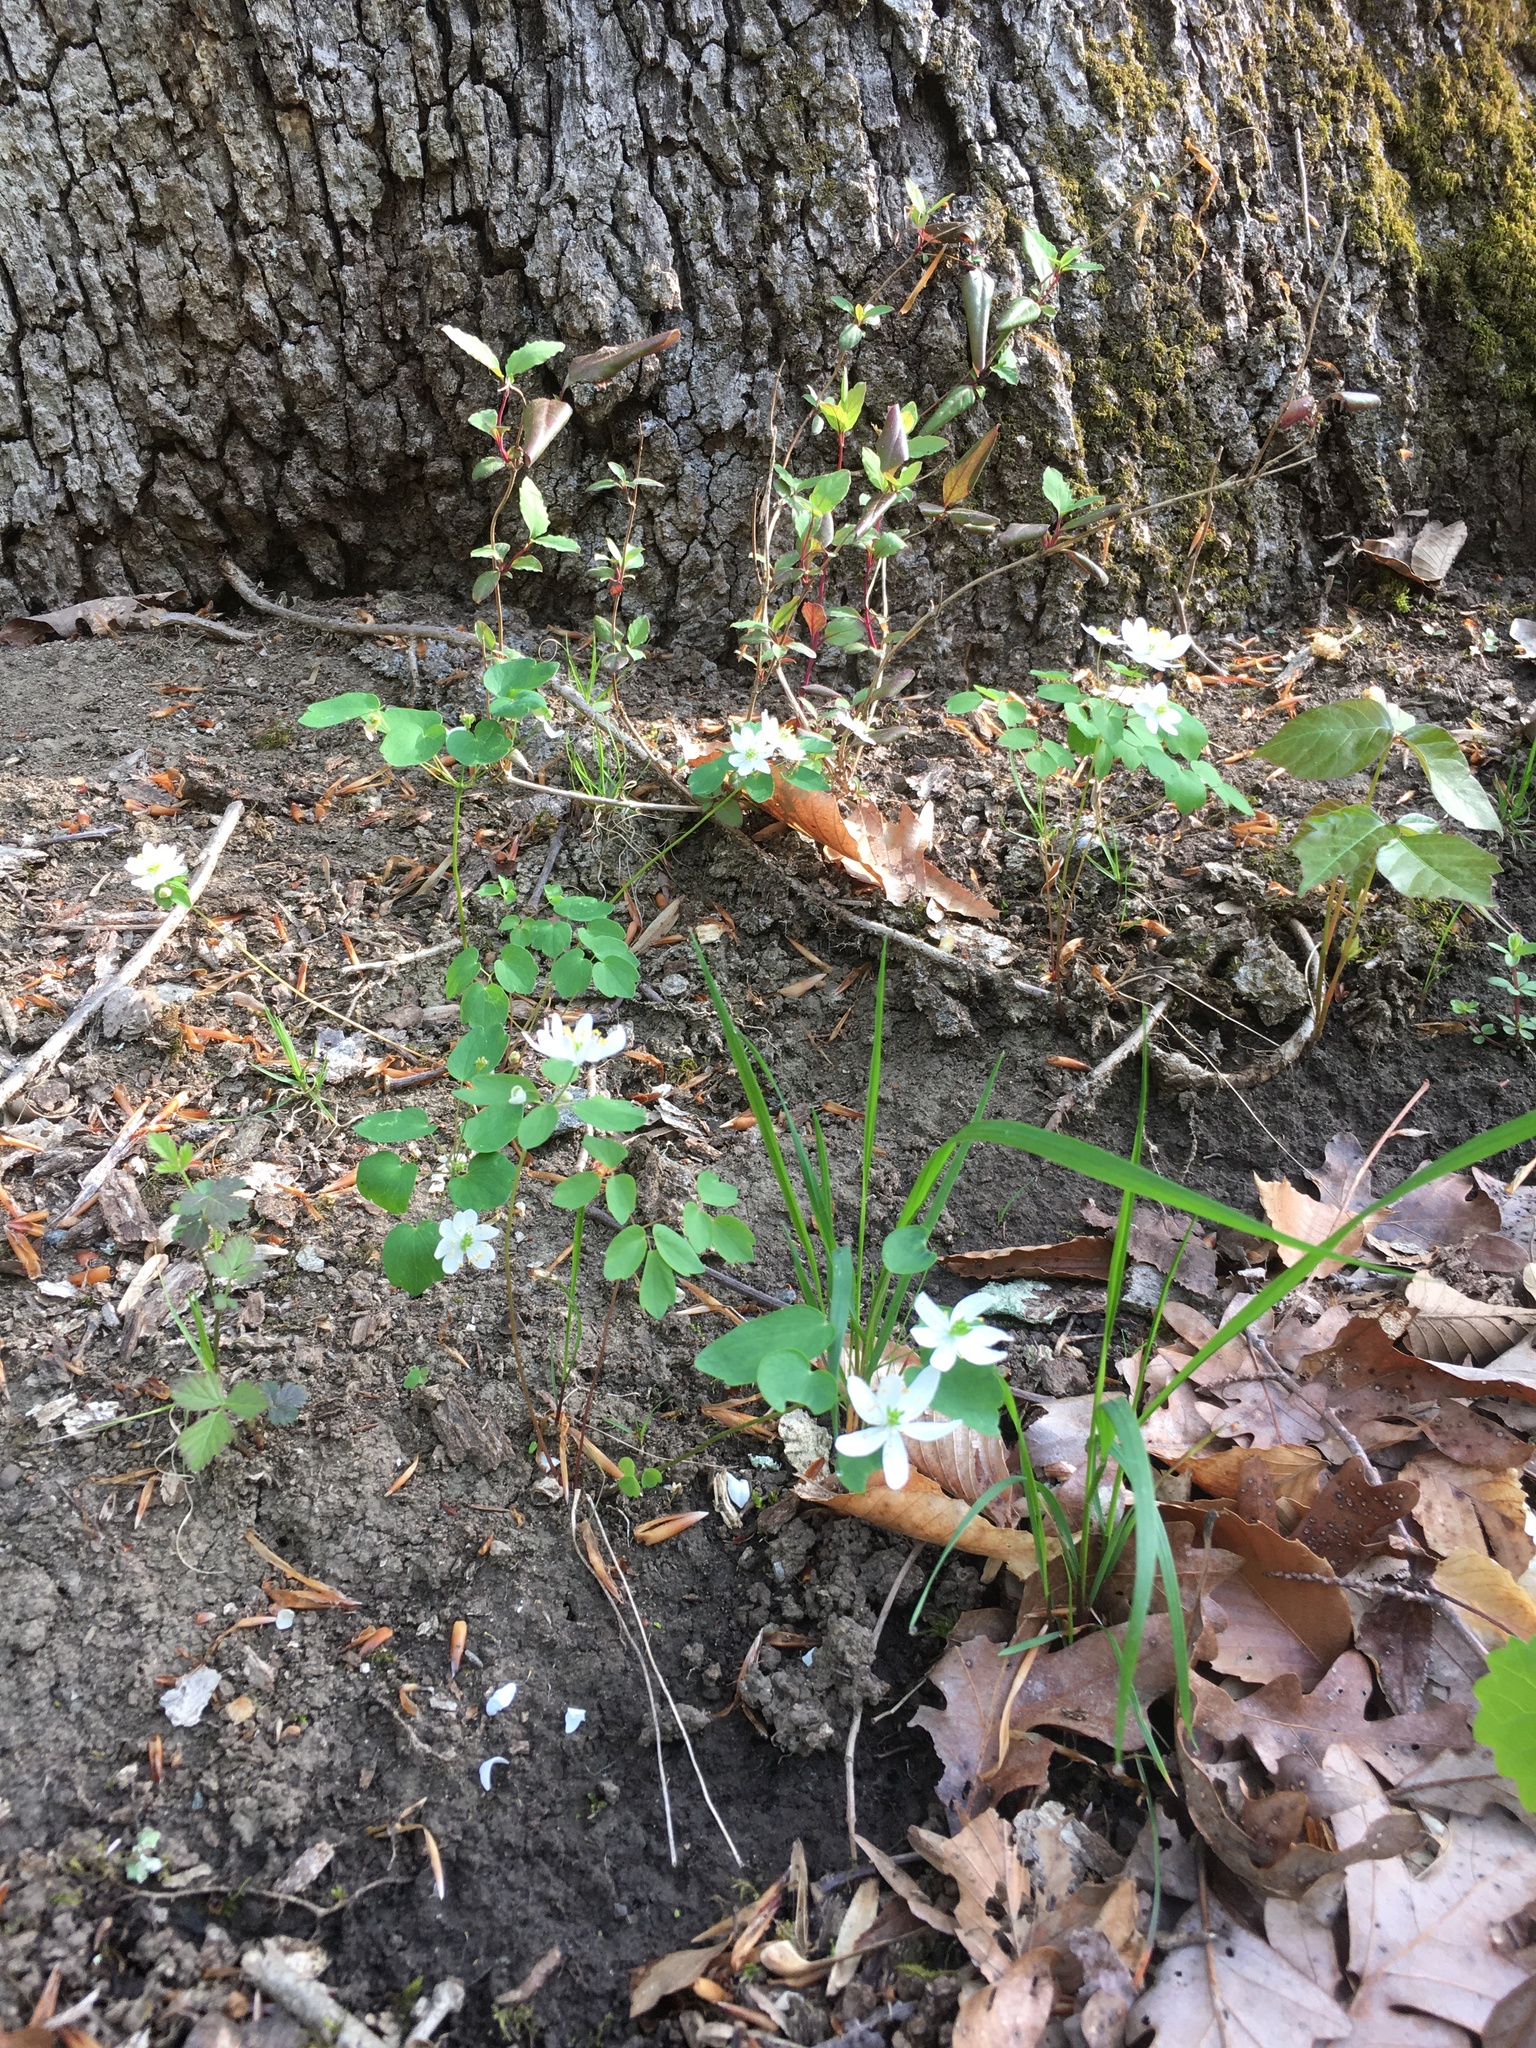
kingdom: Plantae
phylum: Tracheophyta
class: Magnoliopsida
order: Ranunculales
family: Ranunculaceae
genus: Thalictrum
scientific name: Thalictrum thalictroides
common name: Rue-anemone
